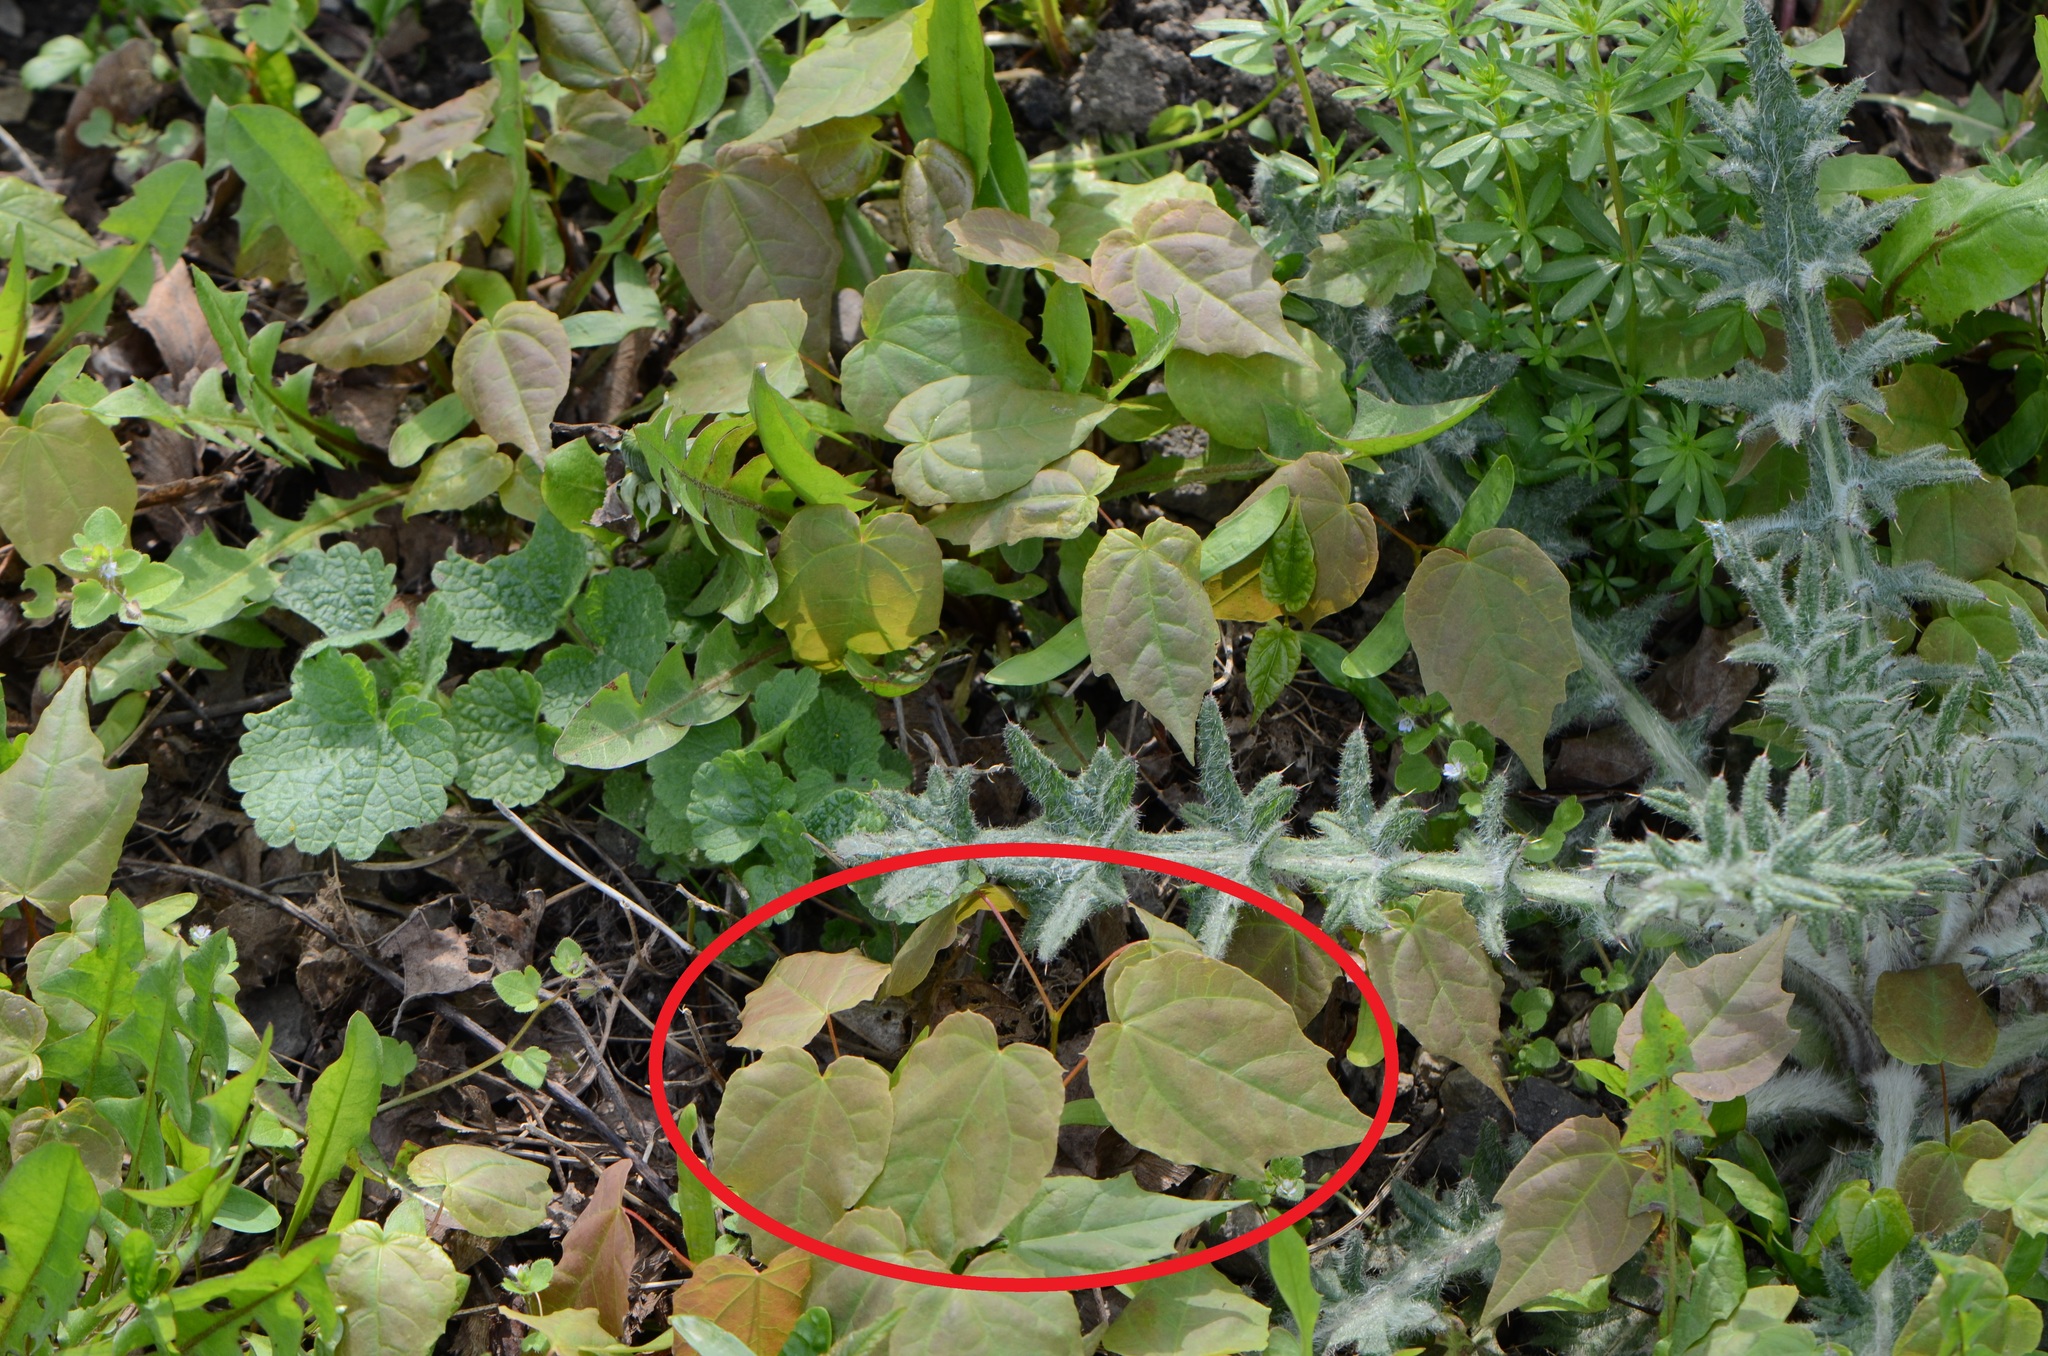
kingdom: Plantae
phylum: Tracheophyta
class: Magnoliopsida
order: Sapindales
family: Sapindaceae
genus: Acer
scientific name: Acer platanoides
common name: Norway maple
